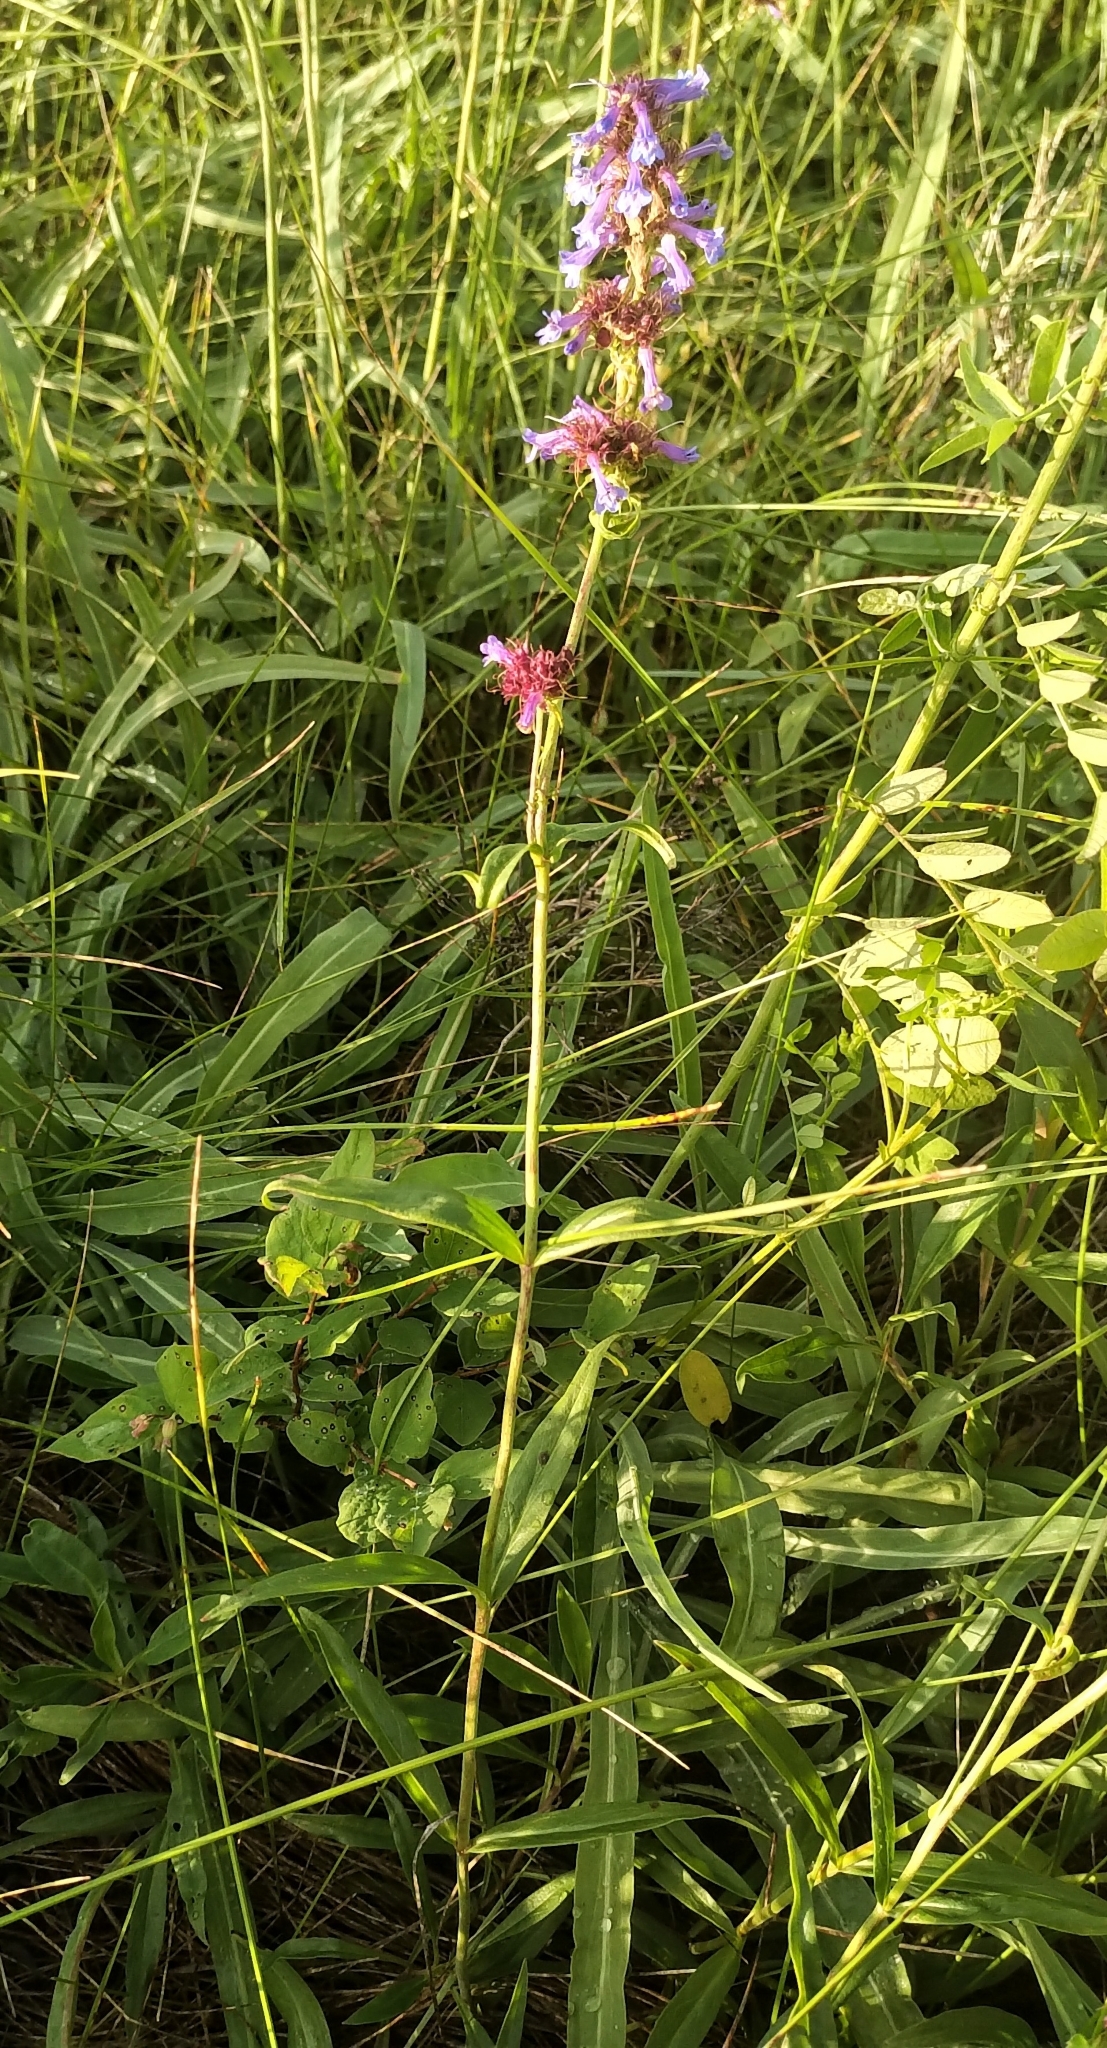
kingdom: Plantae
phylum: Tracheophyta
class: Magnoliopsida
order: Lamiales
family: Plantaginaceae
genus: Penstemon
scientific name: Penstemon procerus
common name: Small-flower penstemon
